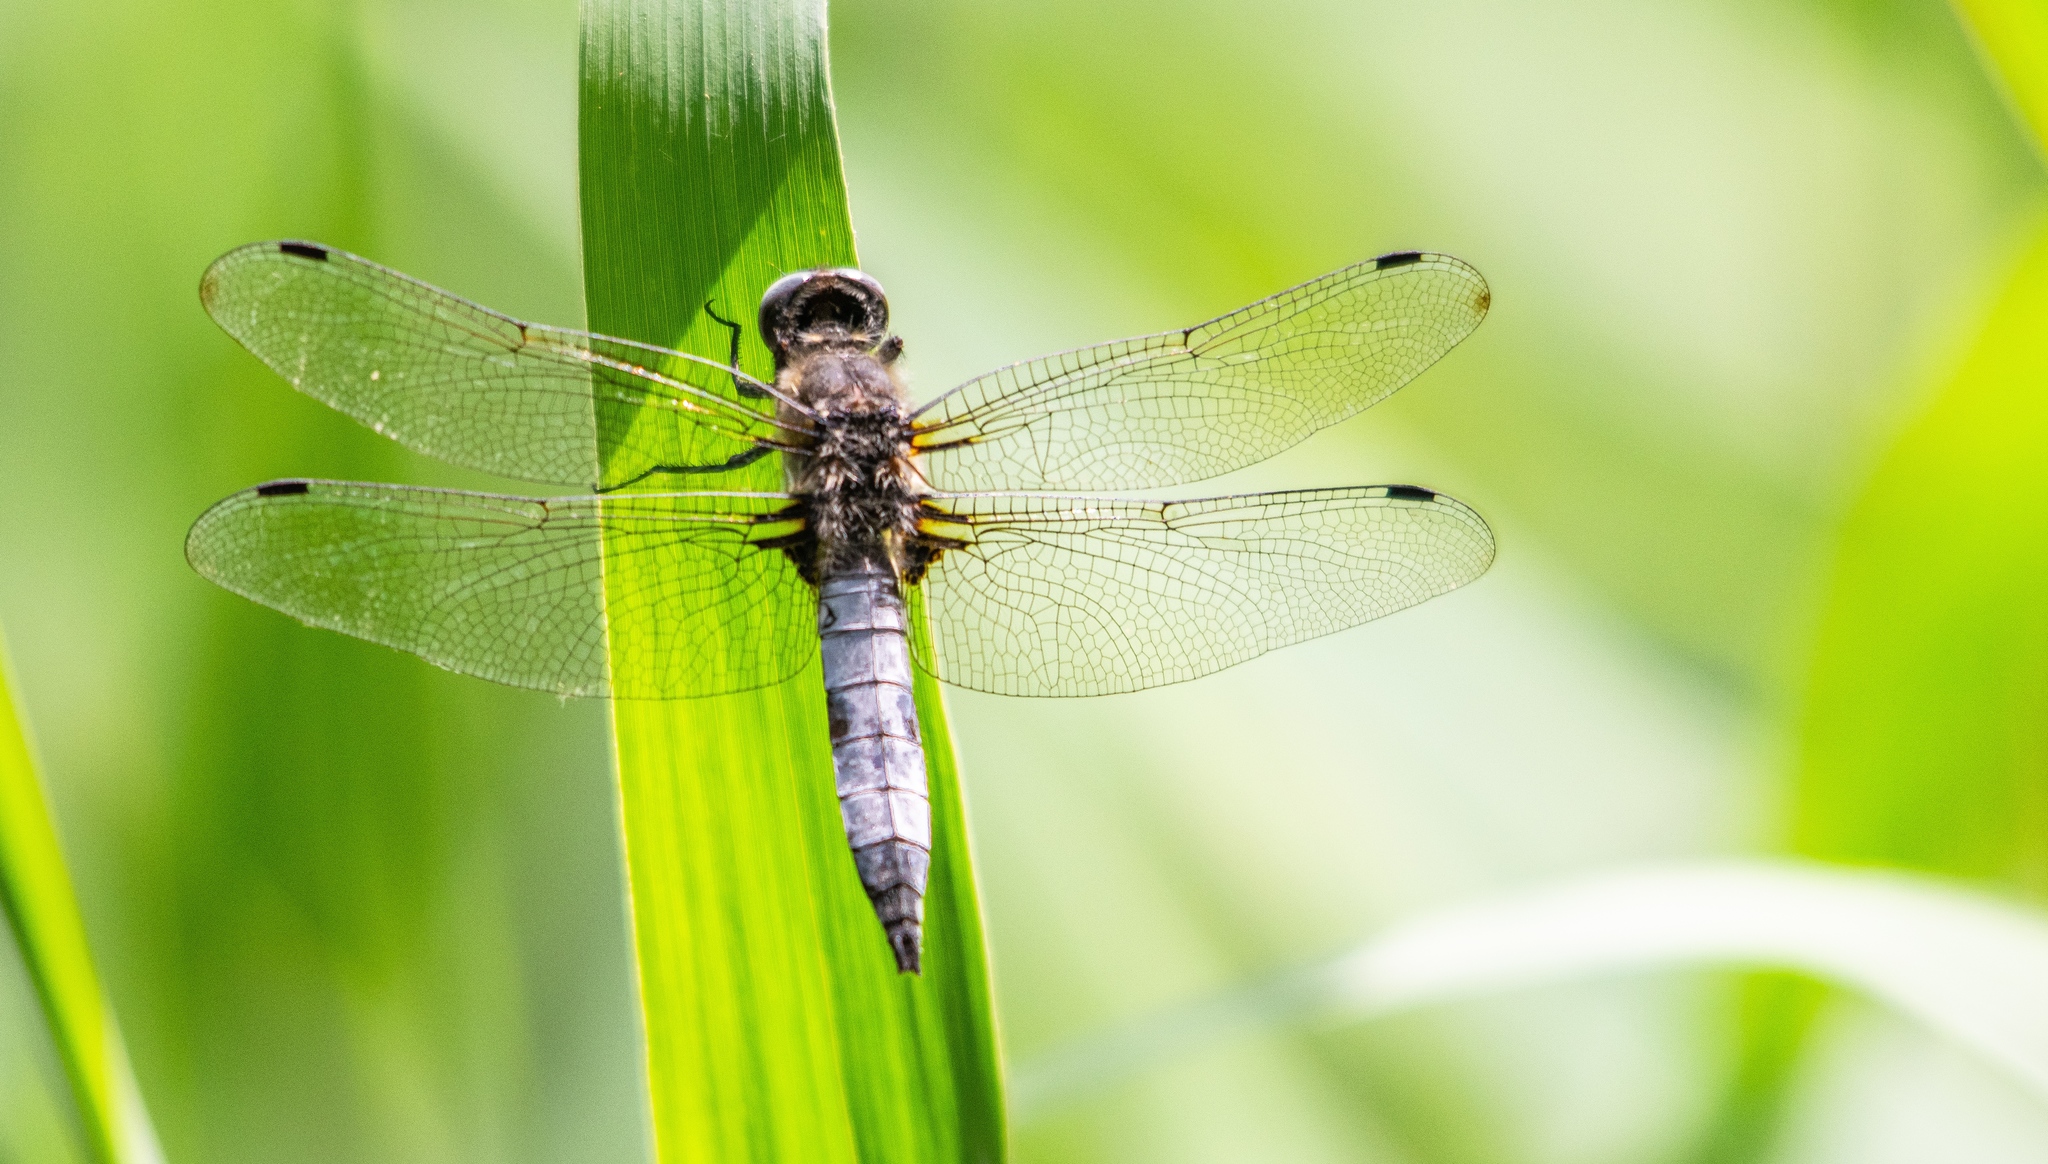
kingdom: Animalia
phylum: Arthropoda
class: Insecta
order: Odonata
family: Libellulidae
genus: Libellula
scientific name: Libellula fulva
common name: Blue chaser
